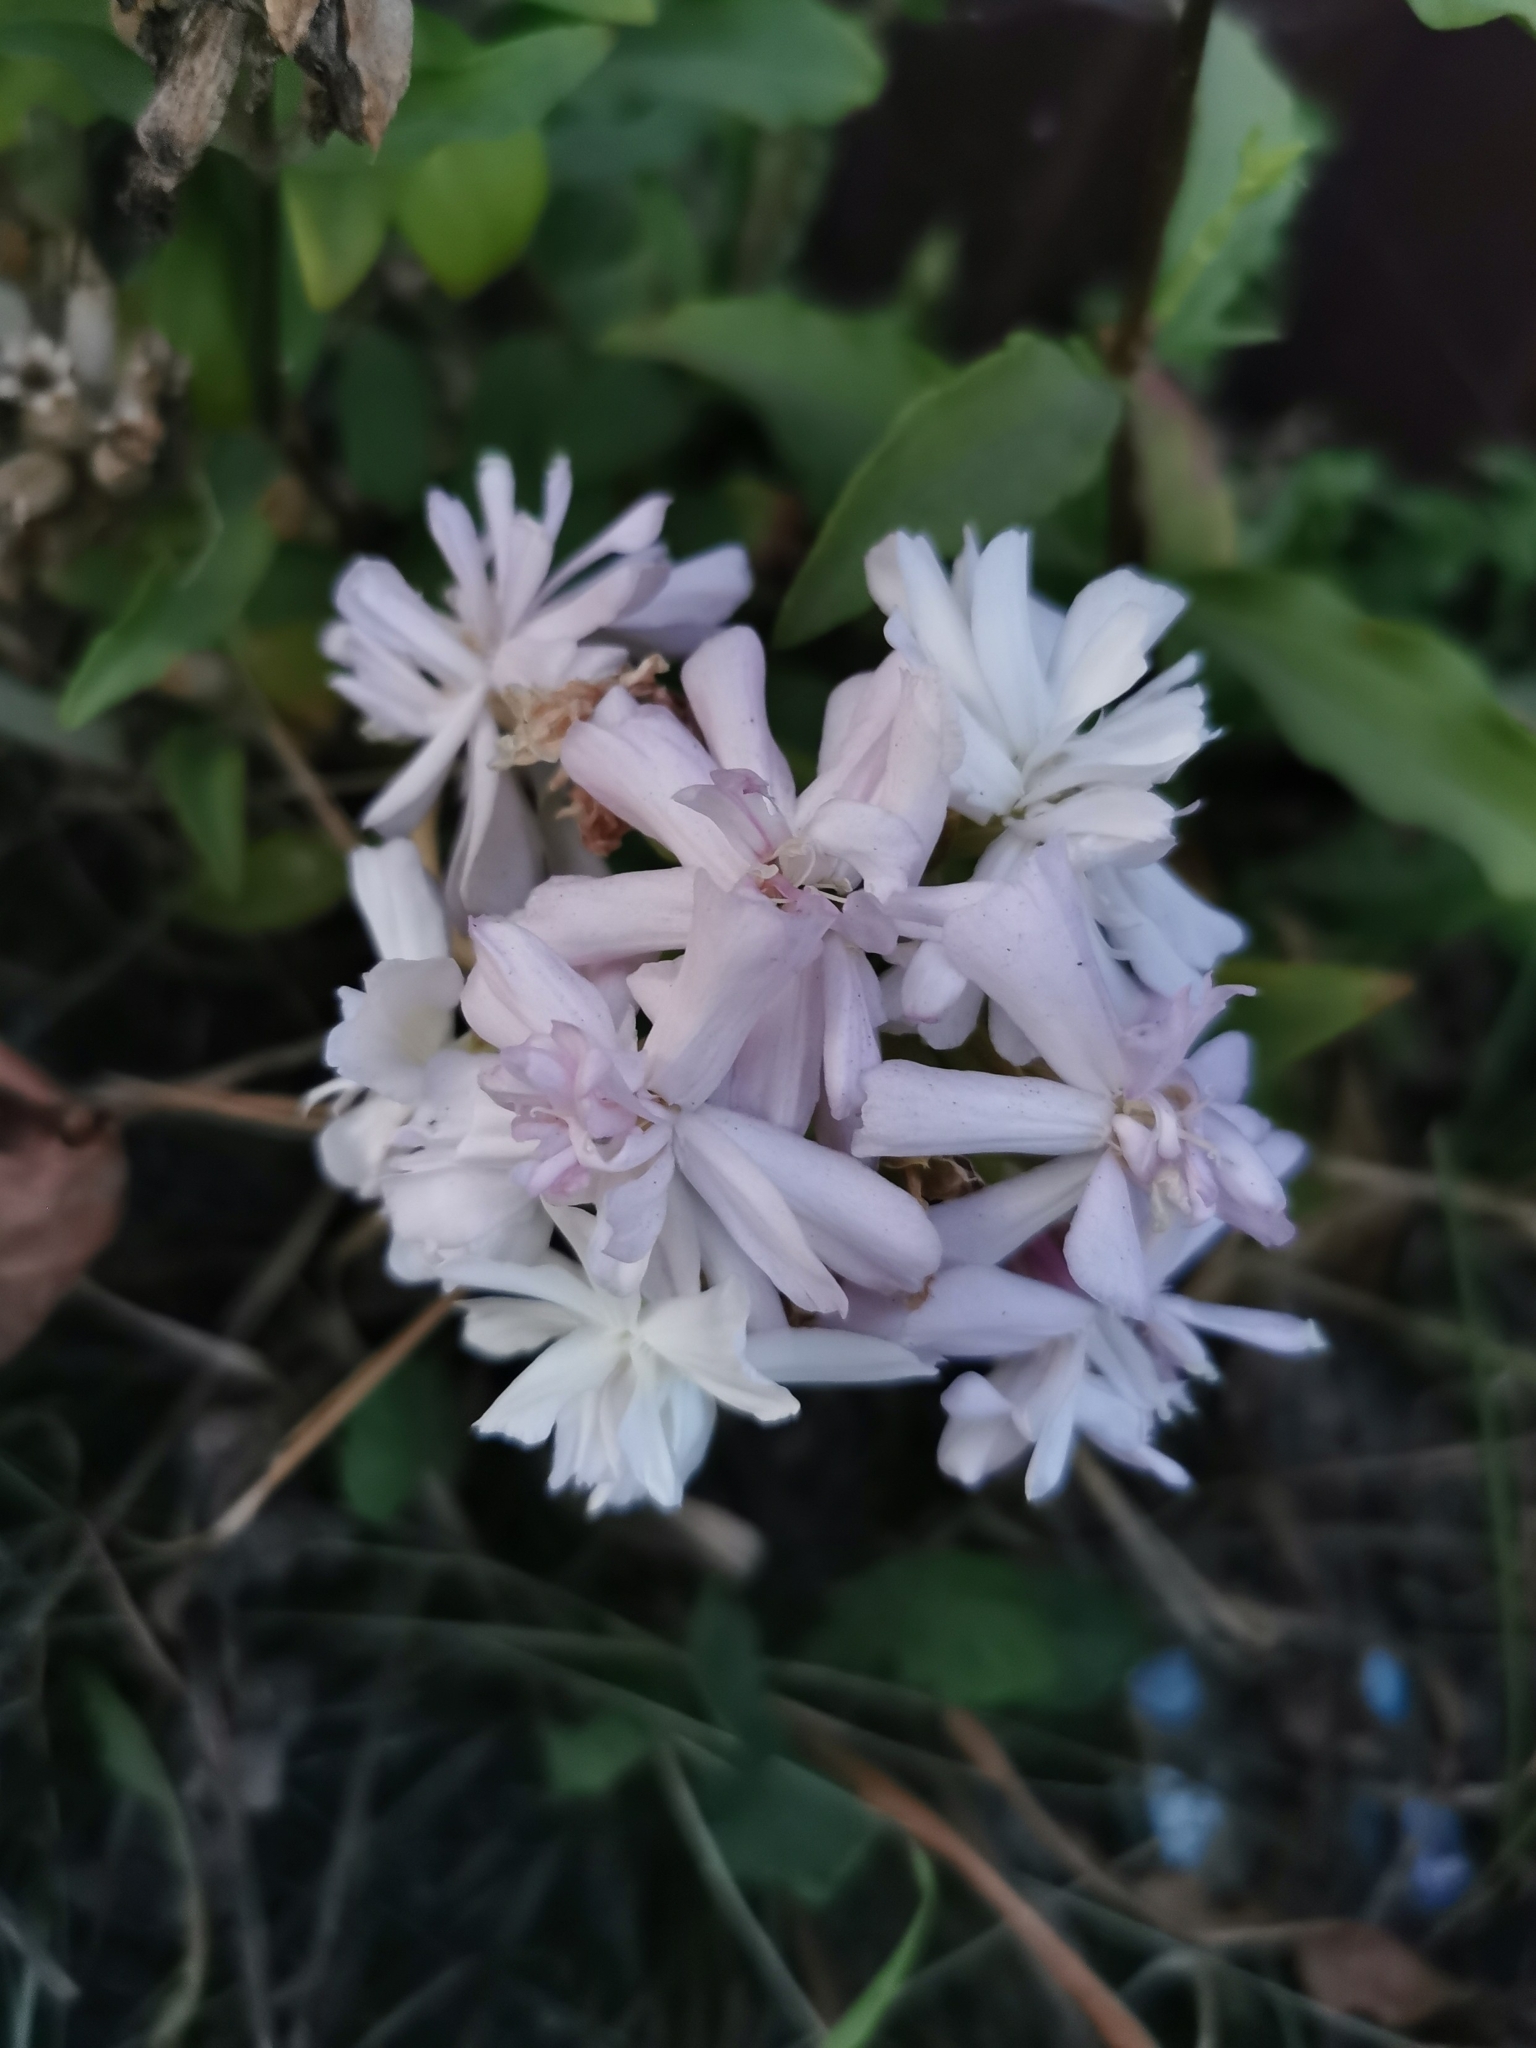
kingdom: Plantae
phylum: Tracheophyta
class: Magnoliopsida
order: Caryophyllales
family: Caryophyllaceae
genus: Saponaria
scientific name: Saponaria officinalis
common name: Soapwort
